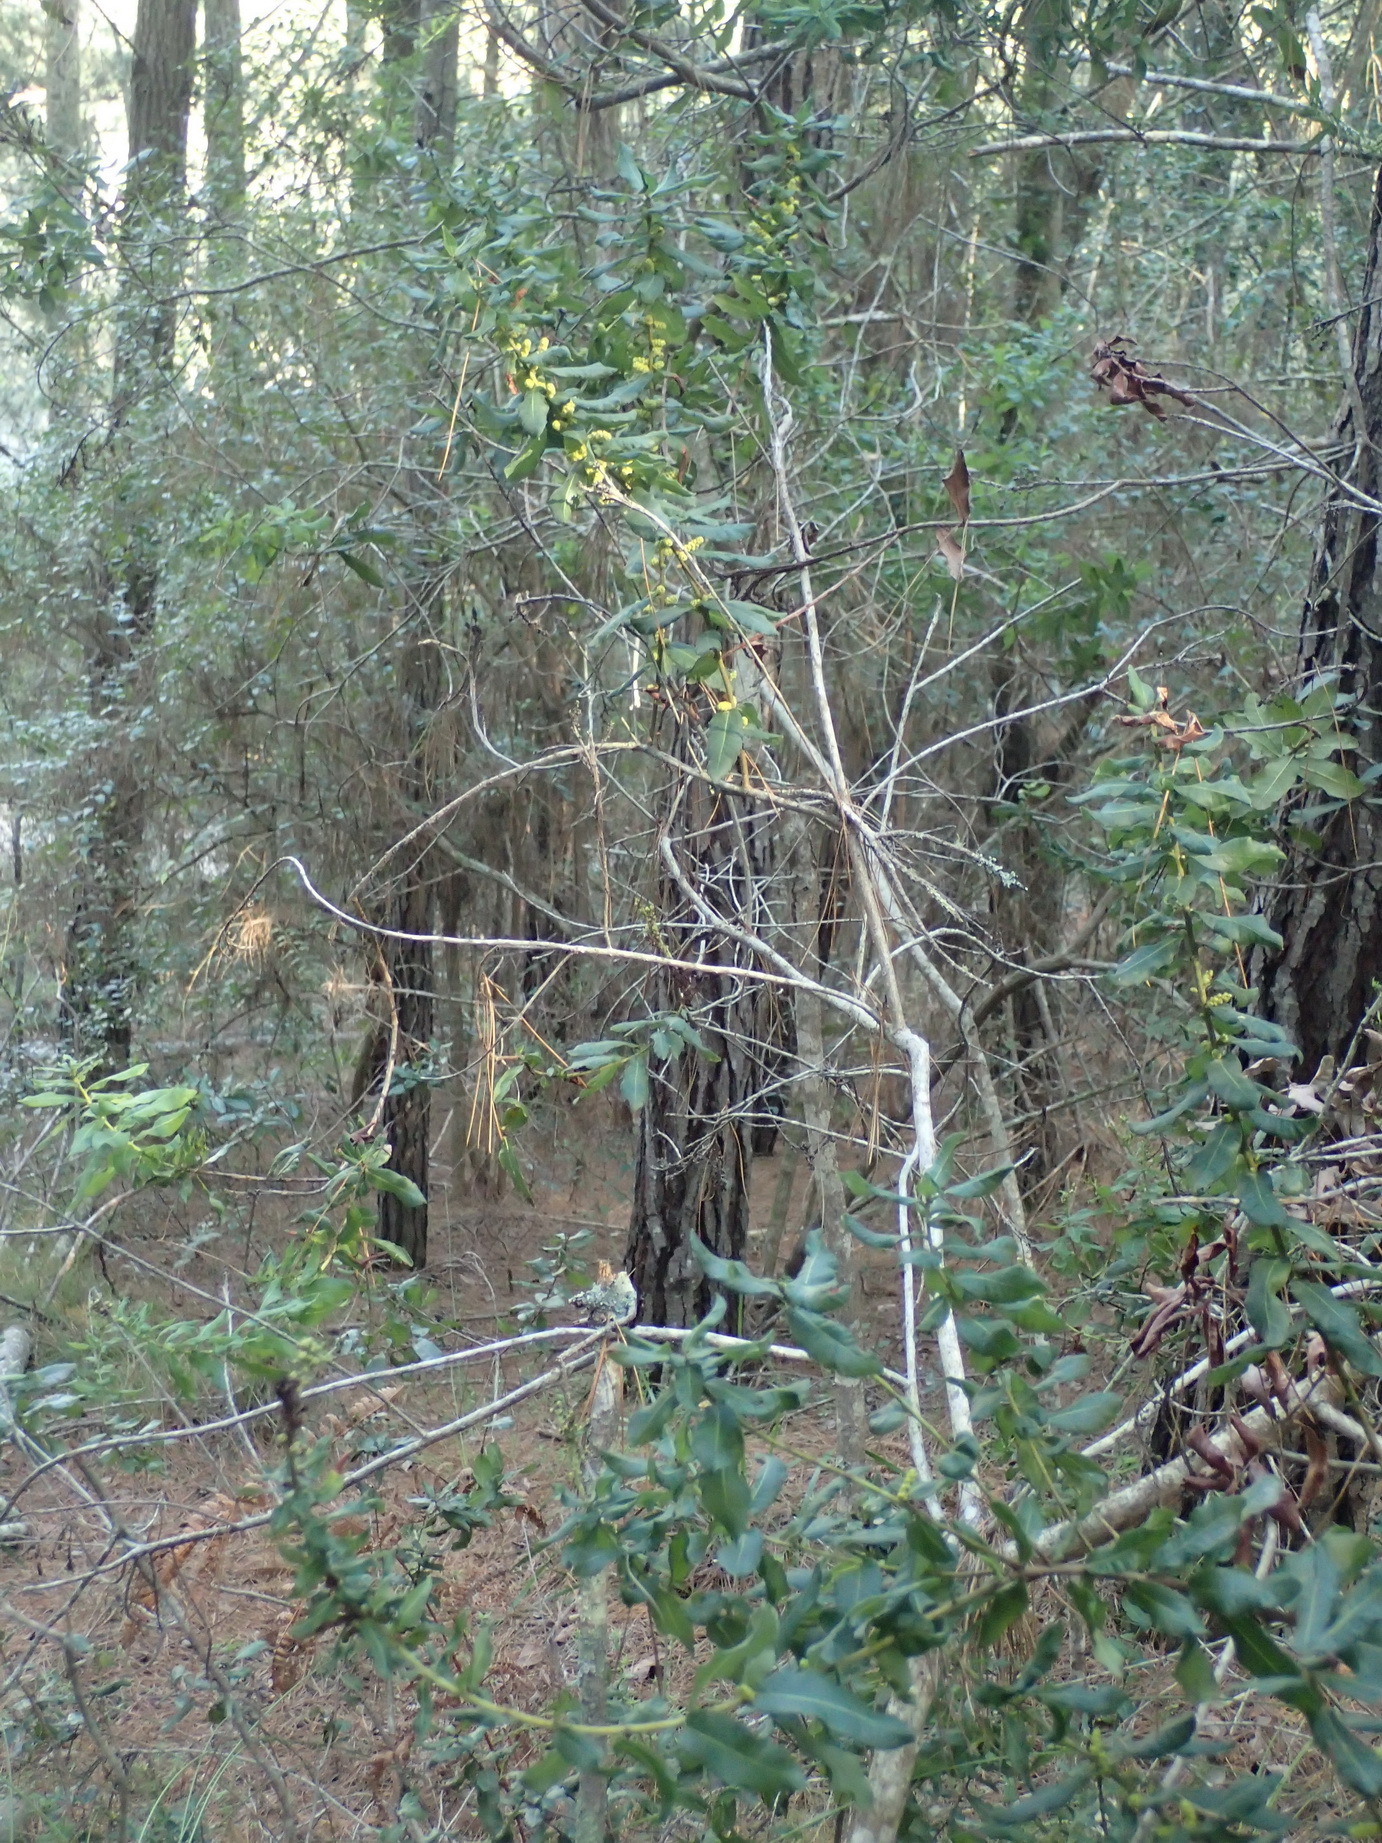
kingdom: Plantae
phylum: Tracheophyta
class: Magnoliopsida
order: Fagales
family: Myricaceae
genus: Morella
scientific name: Morella humilis
